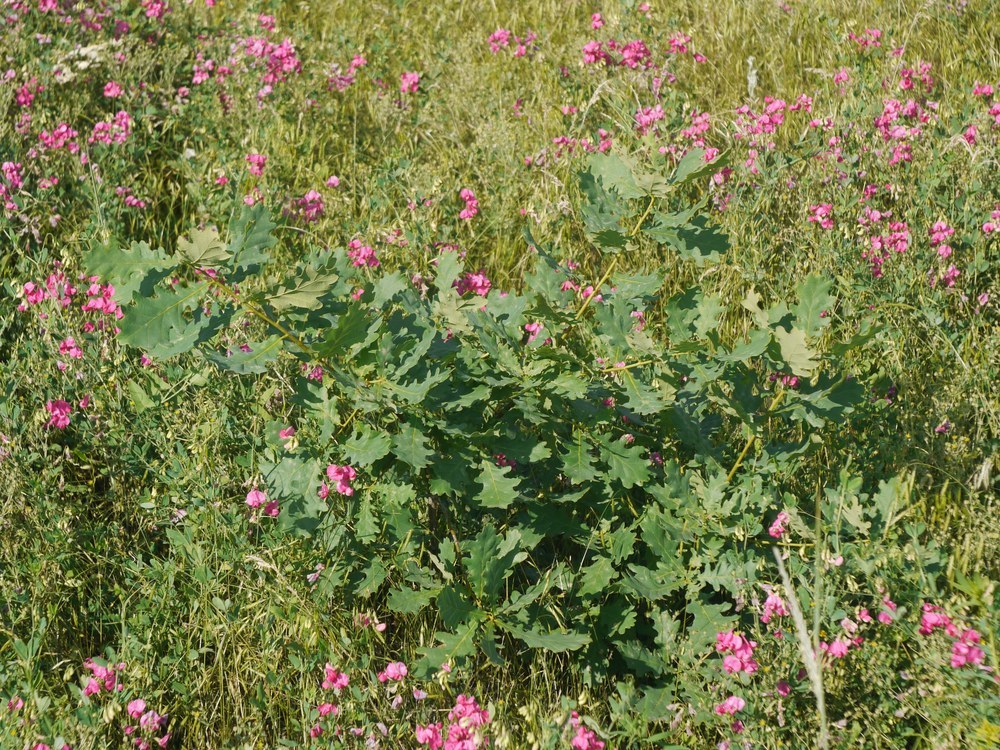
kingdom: Plantae
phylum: Tracheophyta
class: Magnoliopsida
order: Fagales
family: Fagaceae
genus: Quercus
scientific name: Quercus robur
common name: Pedunculate oak
